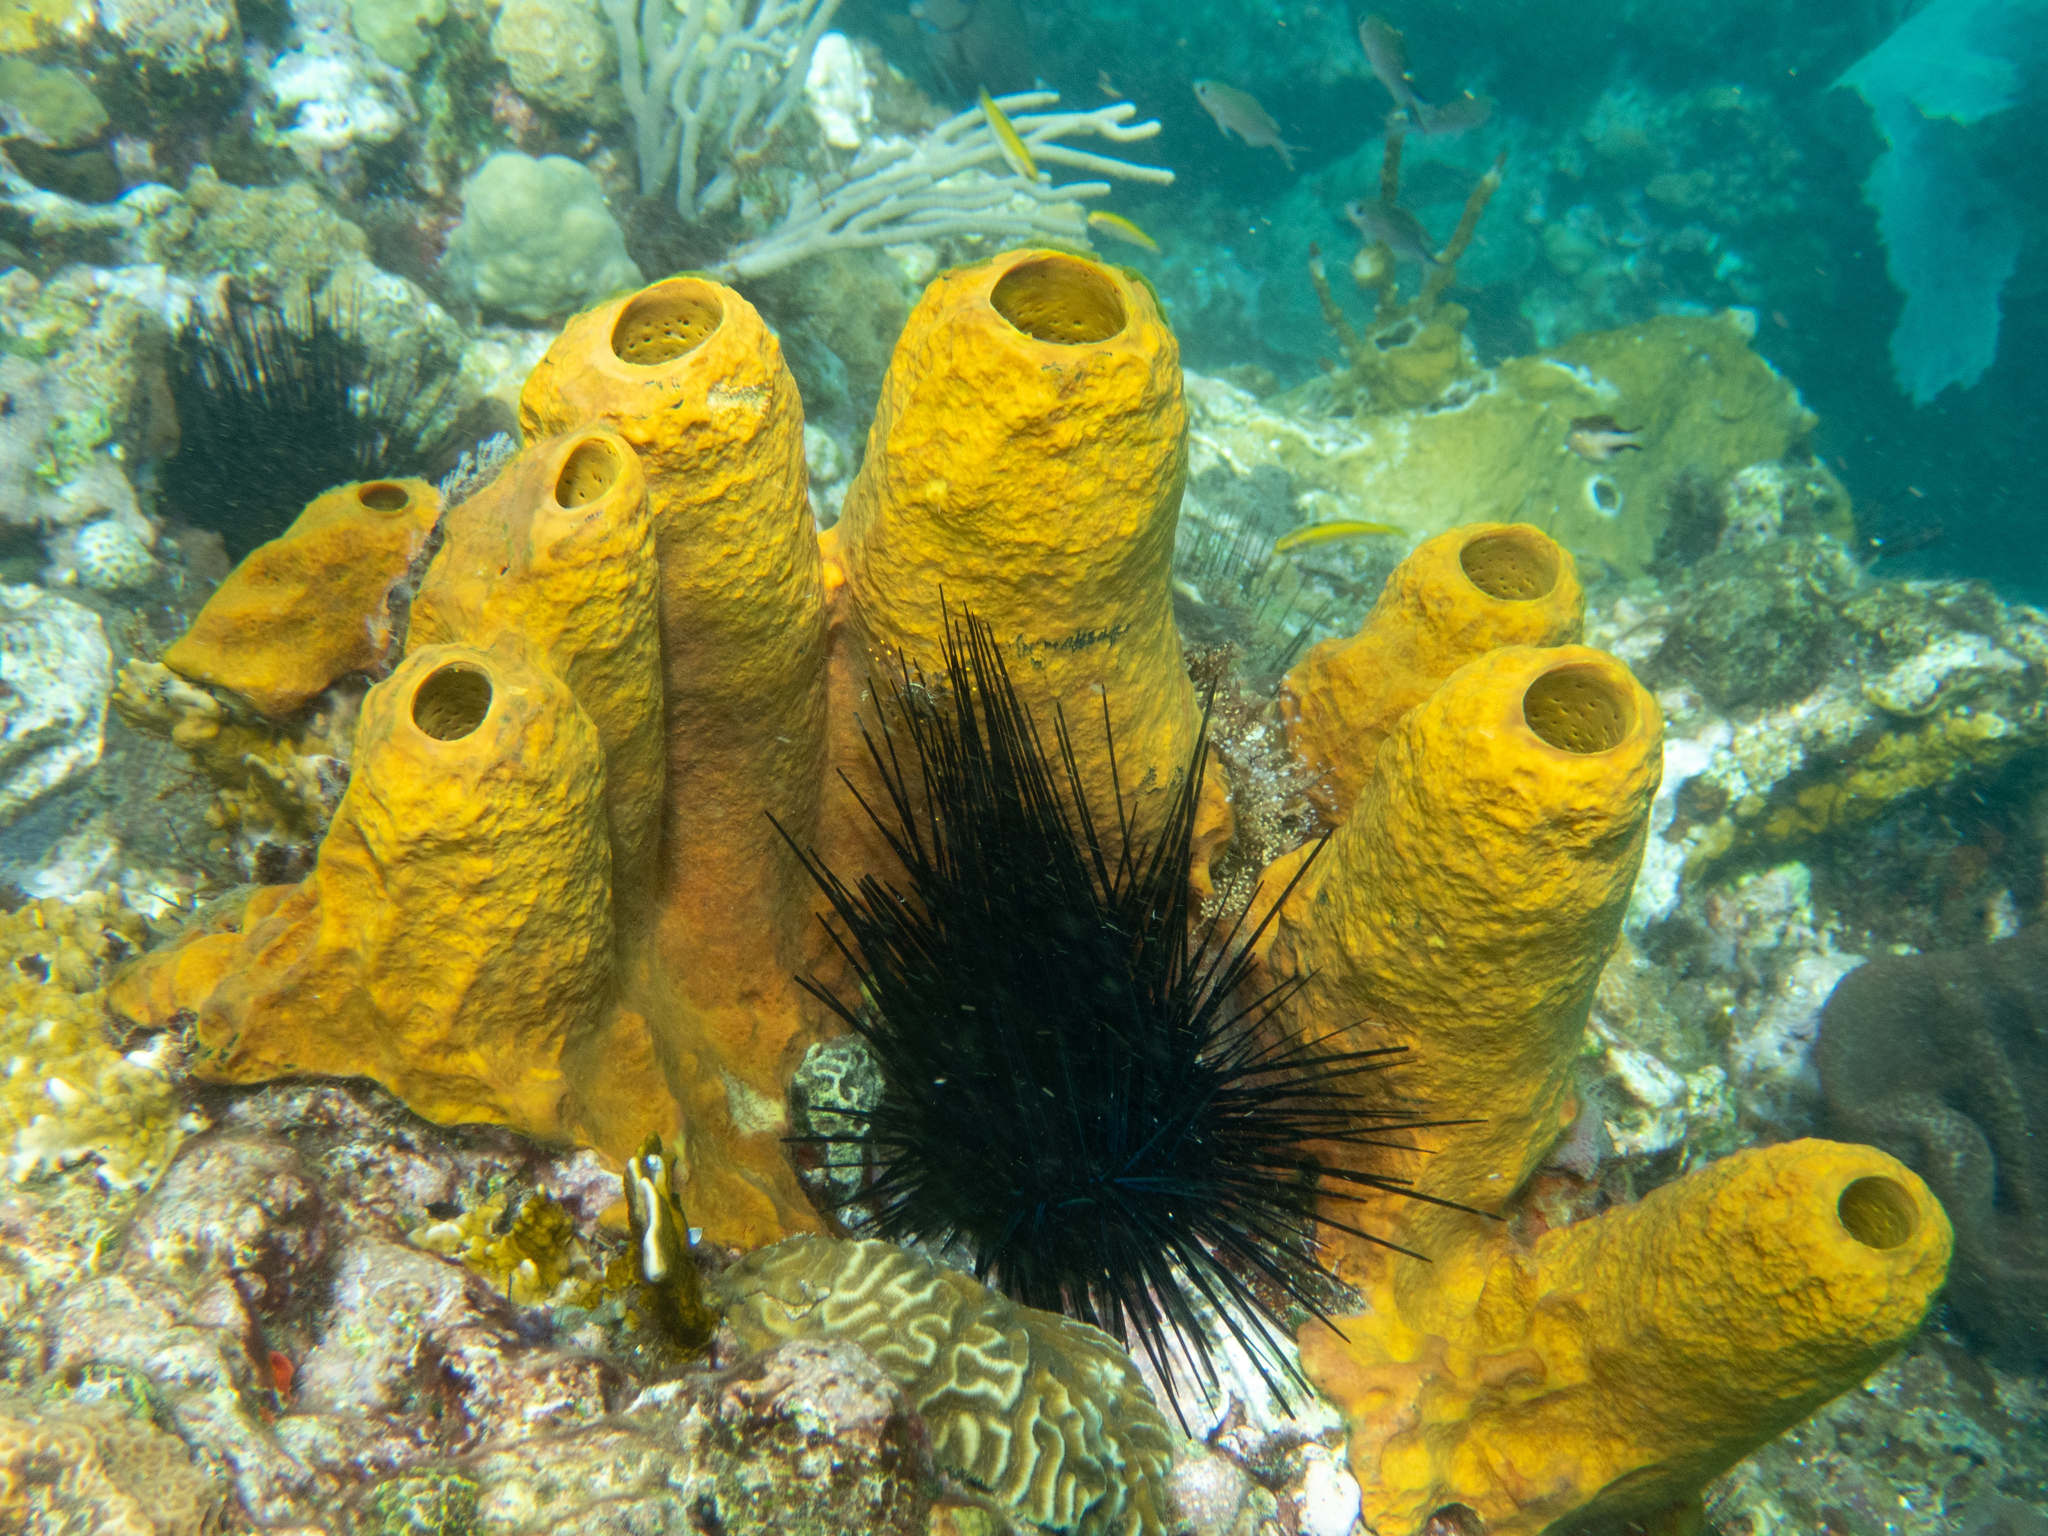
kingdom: Animalia
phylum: Porifera
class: Demospongiae
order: Verongiida
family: Aplysinidae
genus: Aplysina
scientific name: Aplysina fistularis
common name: Candle sponge
